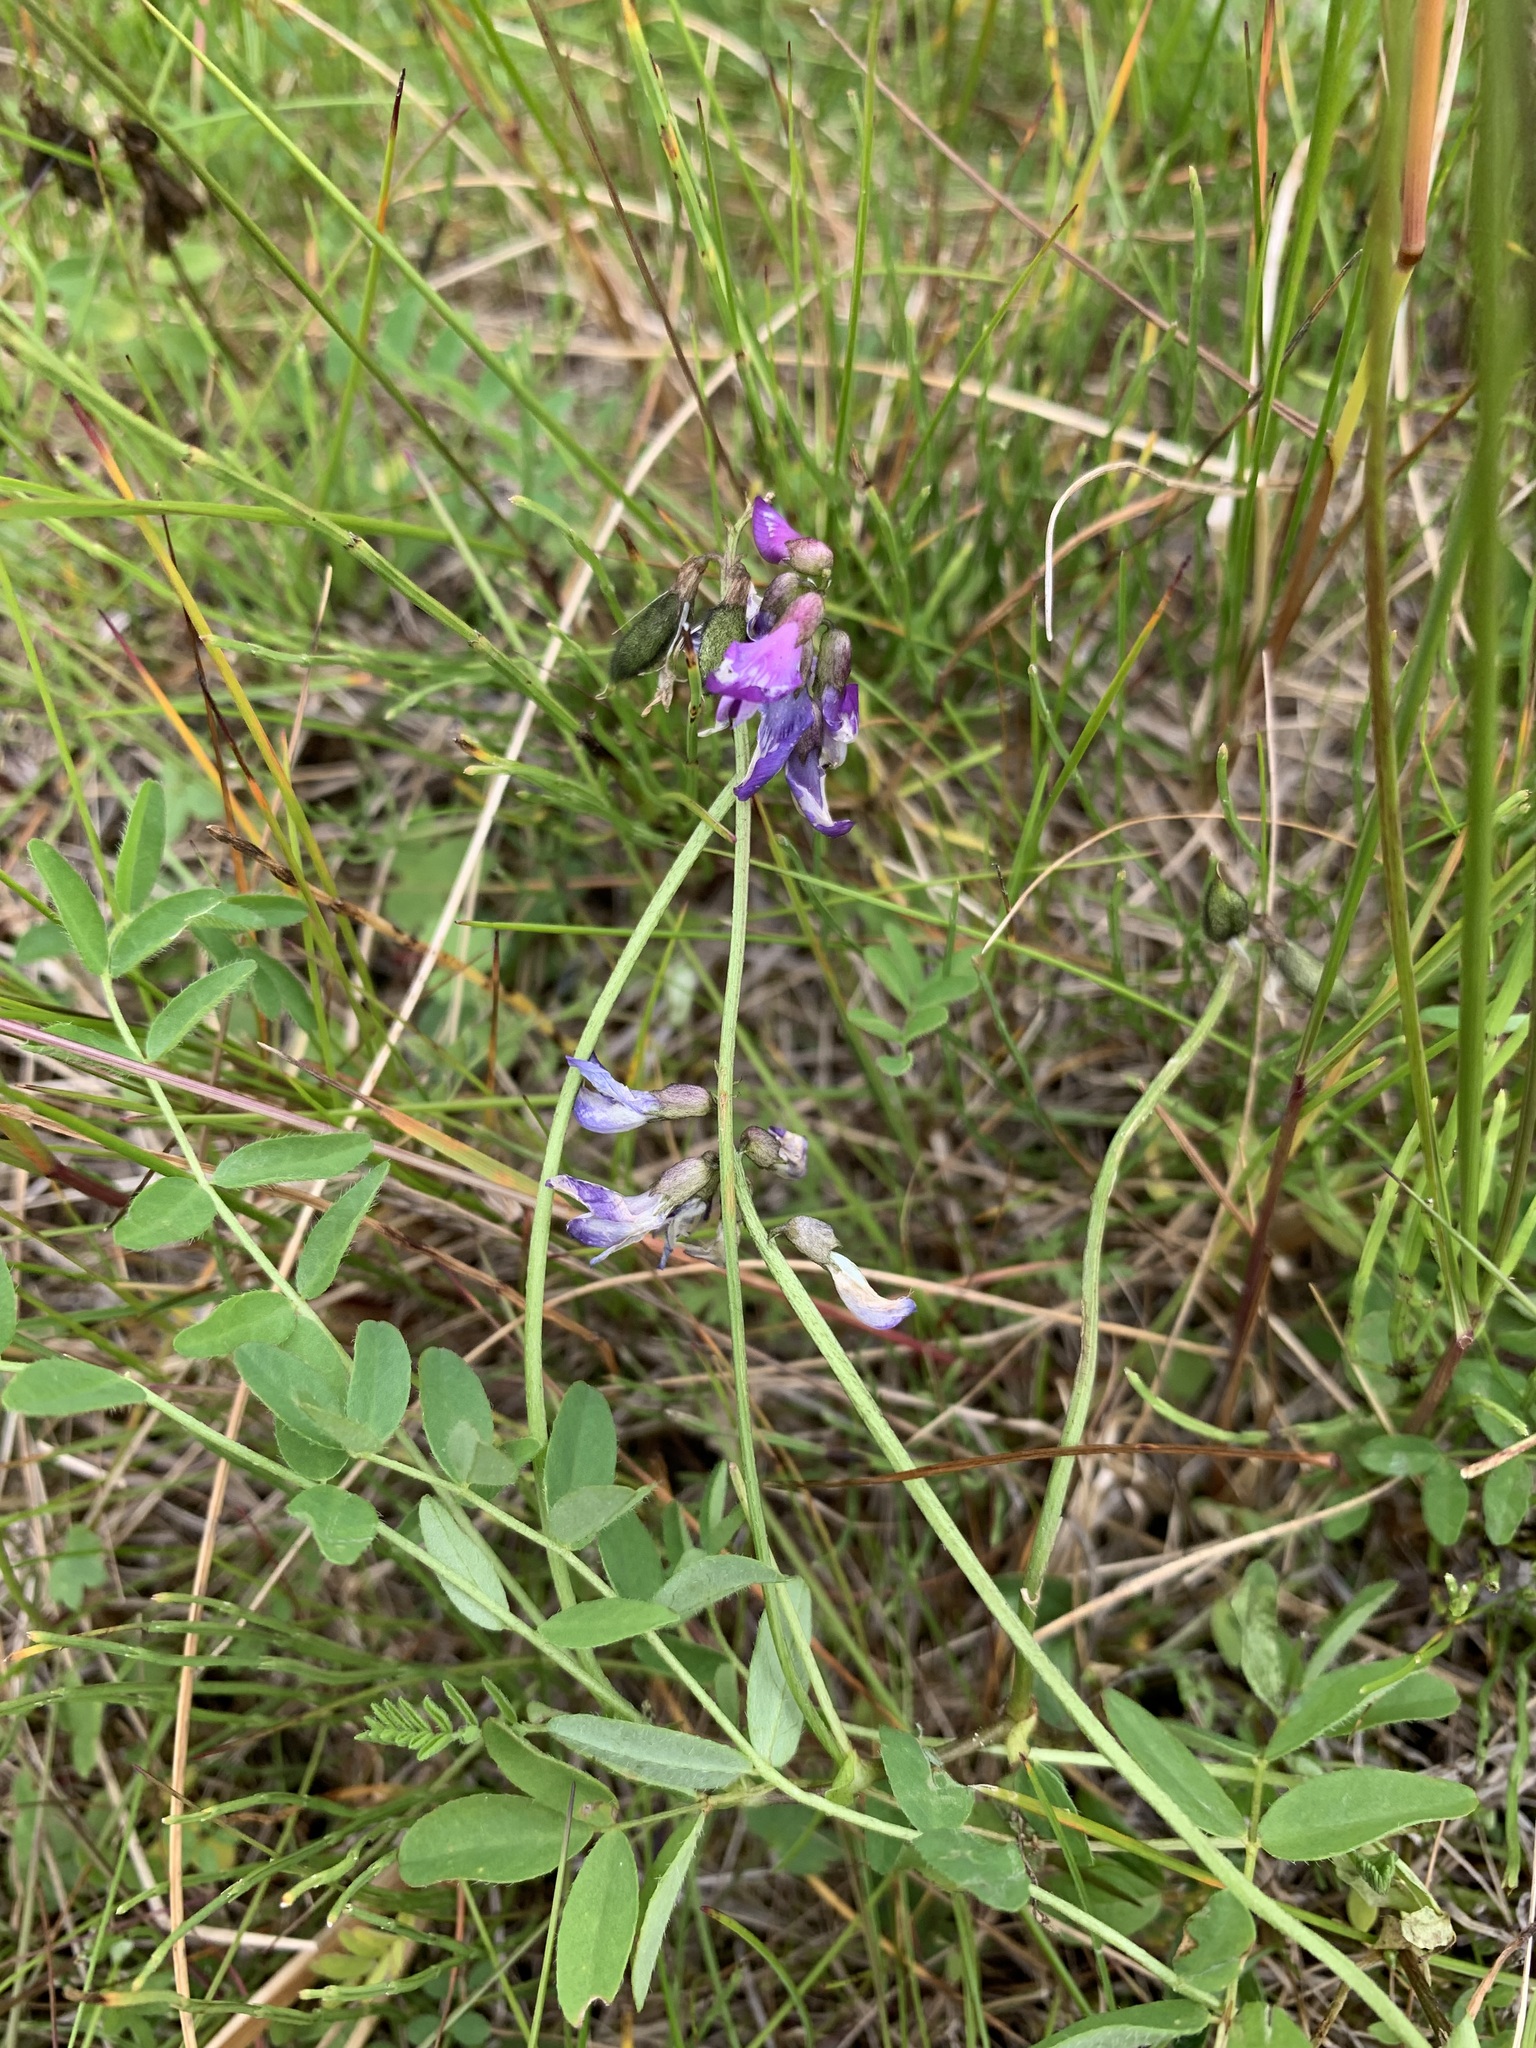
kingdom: Plantae
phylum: Tracheophyta
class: Magnoliopsida
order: Fabales
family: Fabaceae
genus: Astragalus
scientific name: Astragalus alpinus
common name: Alpine milk-vetch
